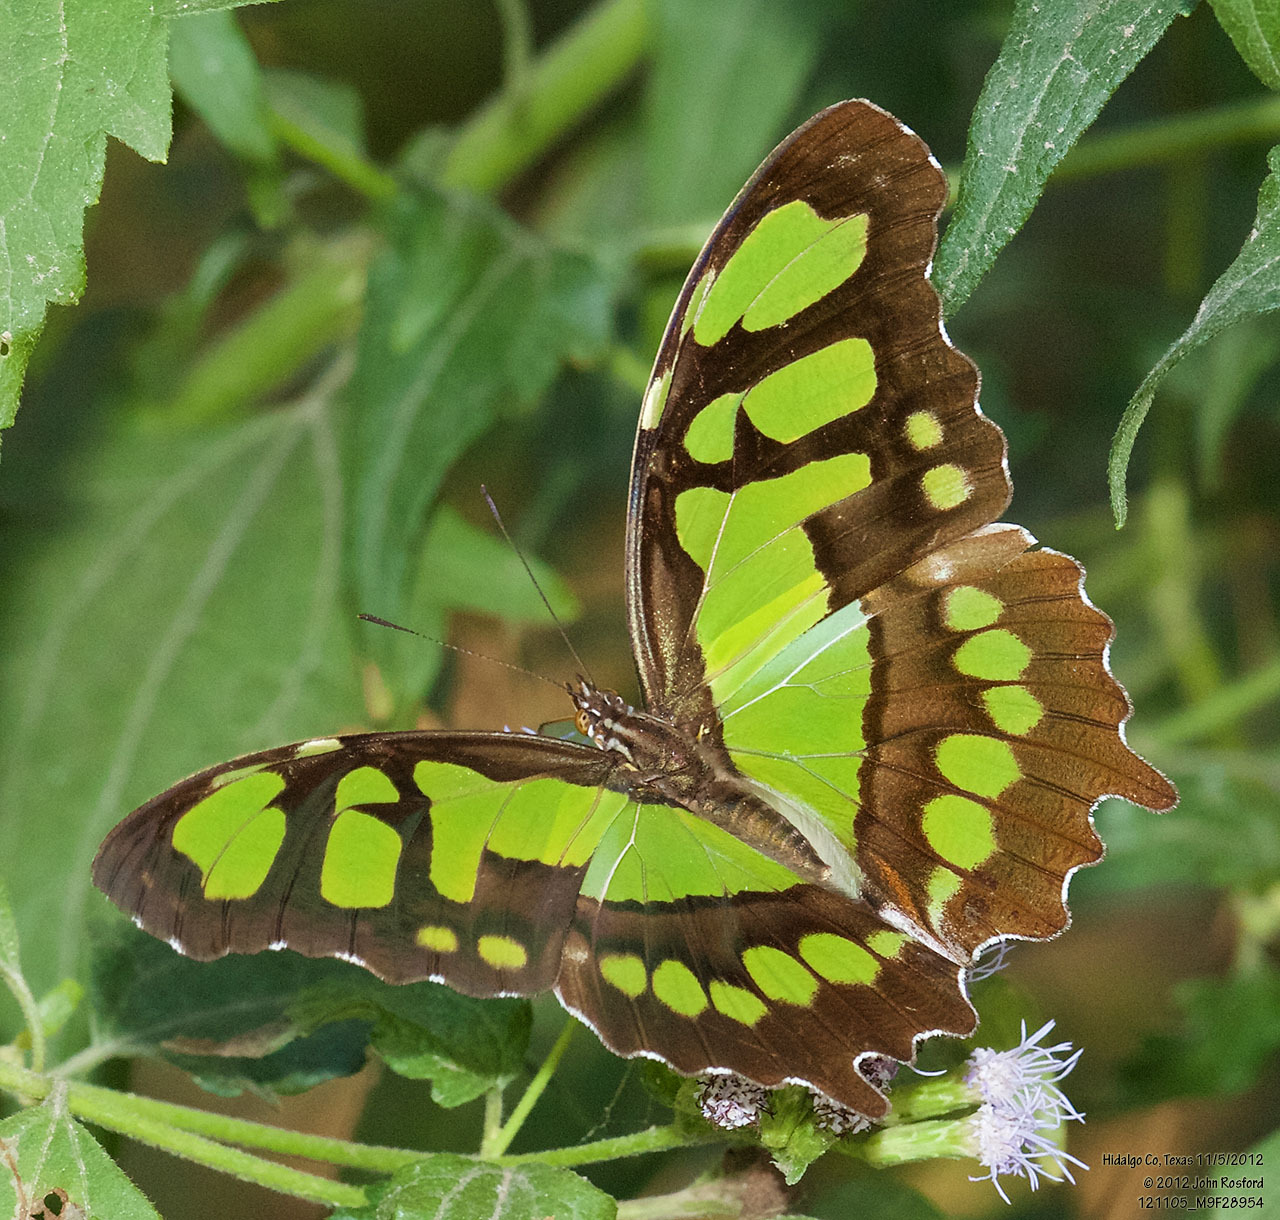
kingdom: Animalia
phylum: Arthropoda
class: Insecta
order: Lepidoptera
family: Nymphalidae
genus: Siproeta
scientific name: Siproeta stelenes
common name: Malachite
